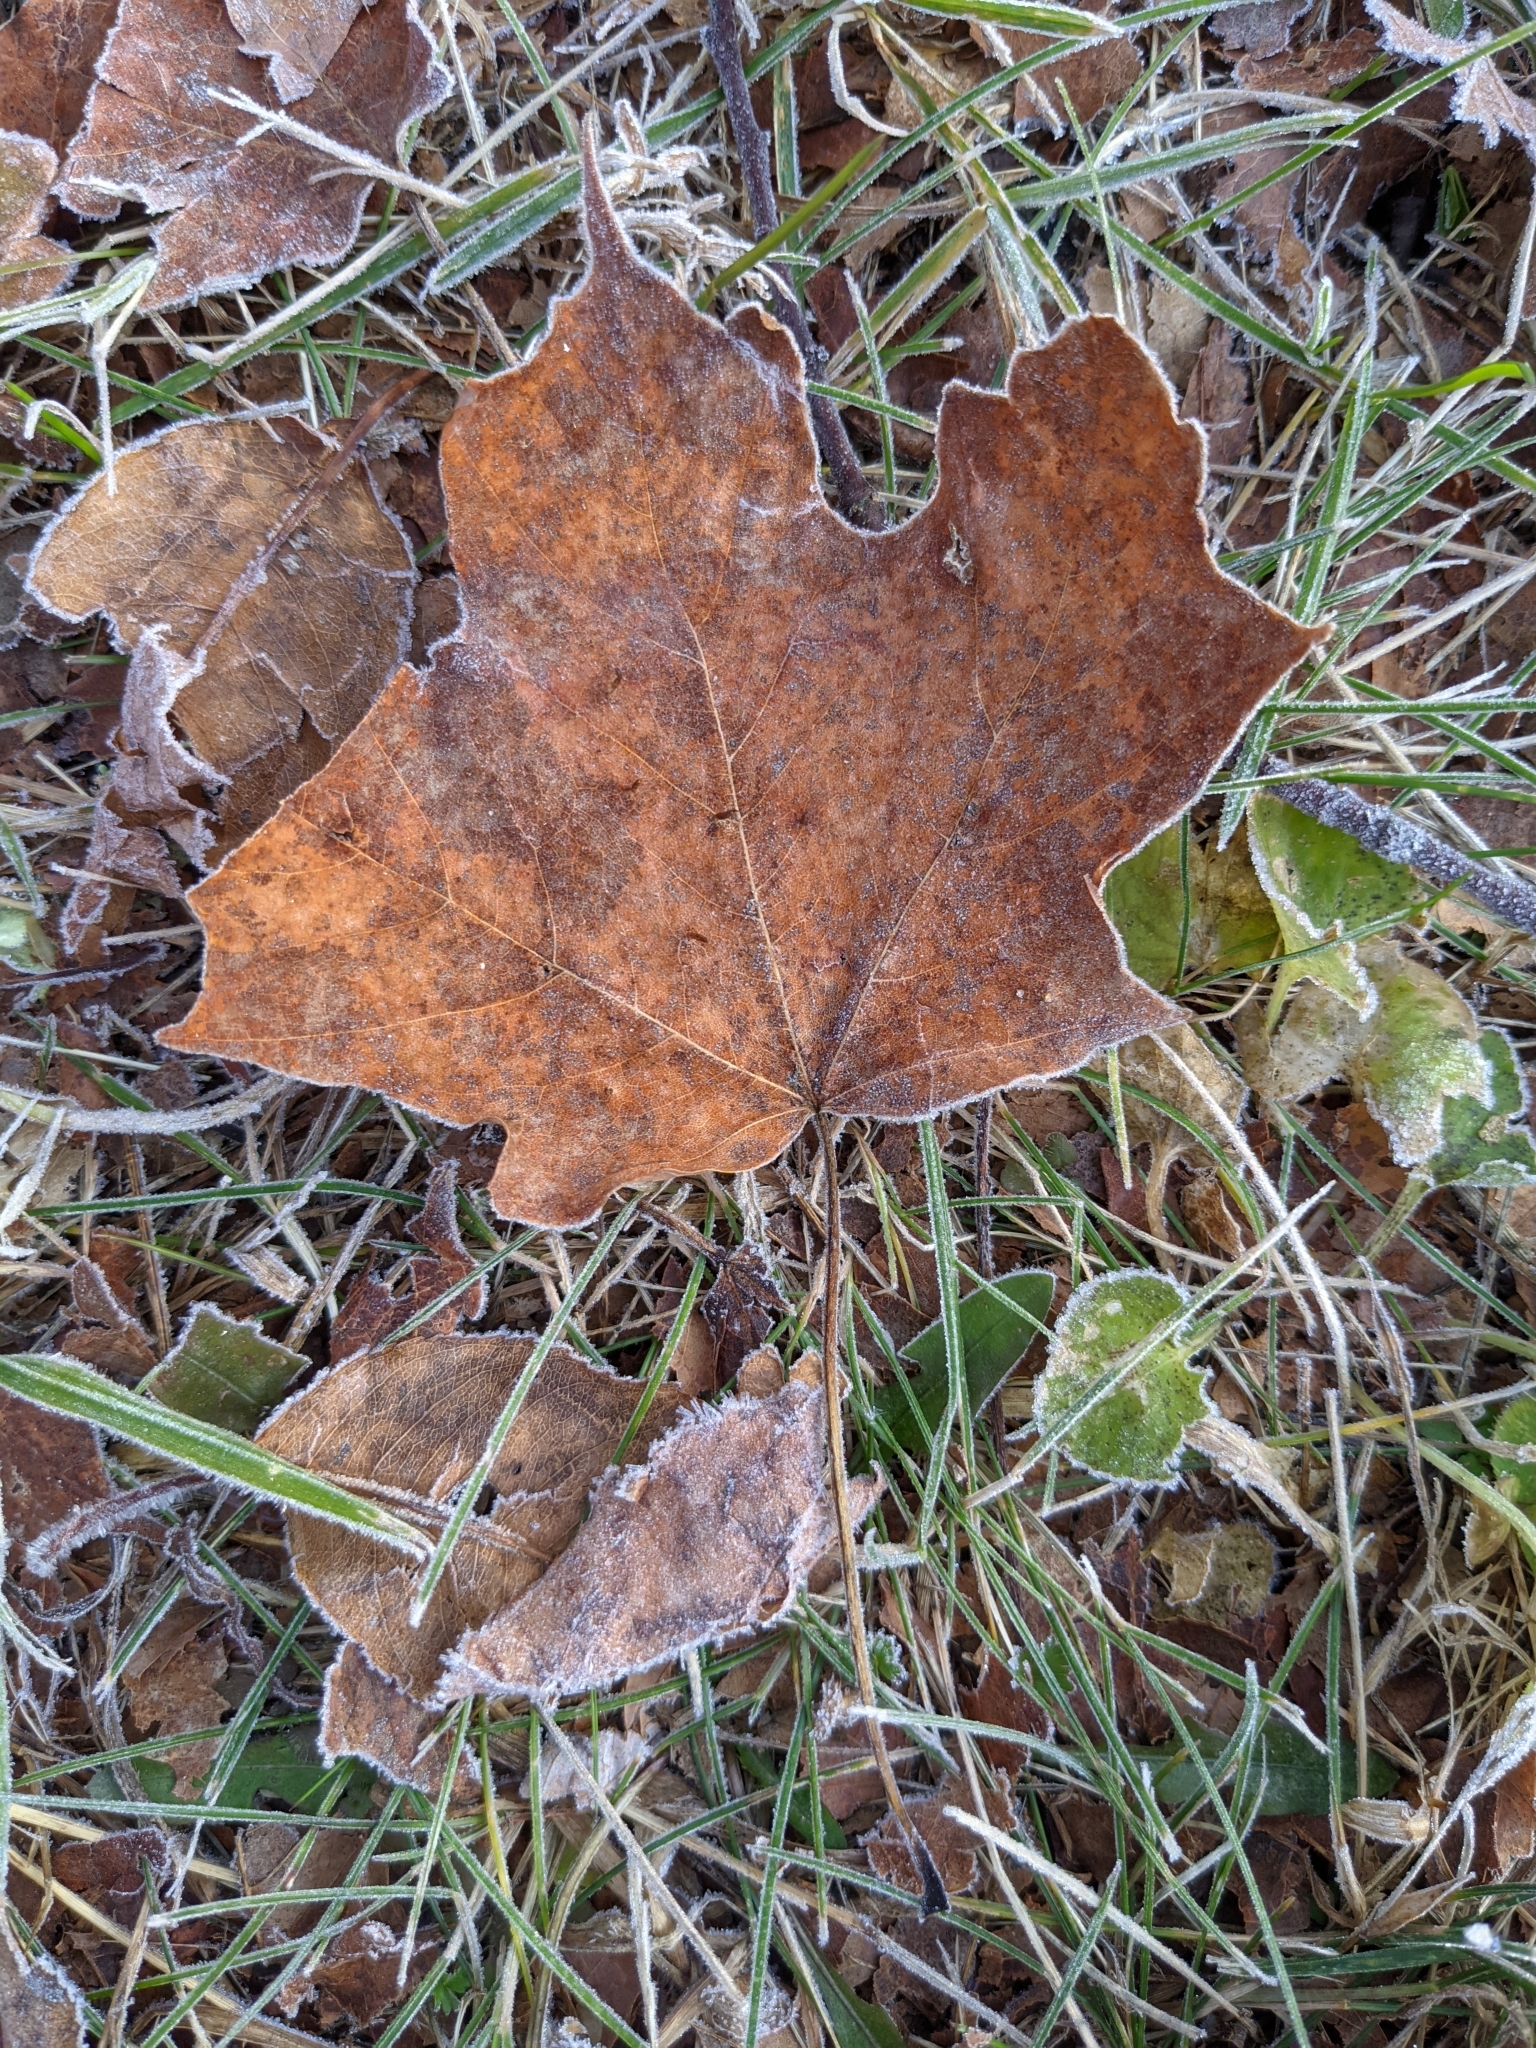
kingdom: Plantae
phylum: Tracheophyta
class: Magnoliopsida
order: Sapindales
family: Sapindaceae
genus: Acer
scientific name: Acer saccharum
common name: Sugar maple
